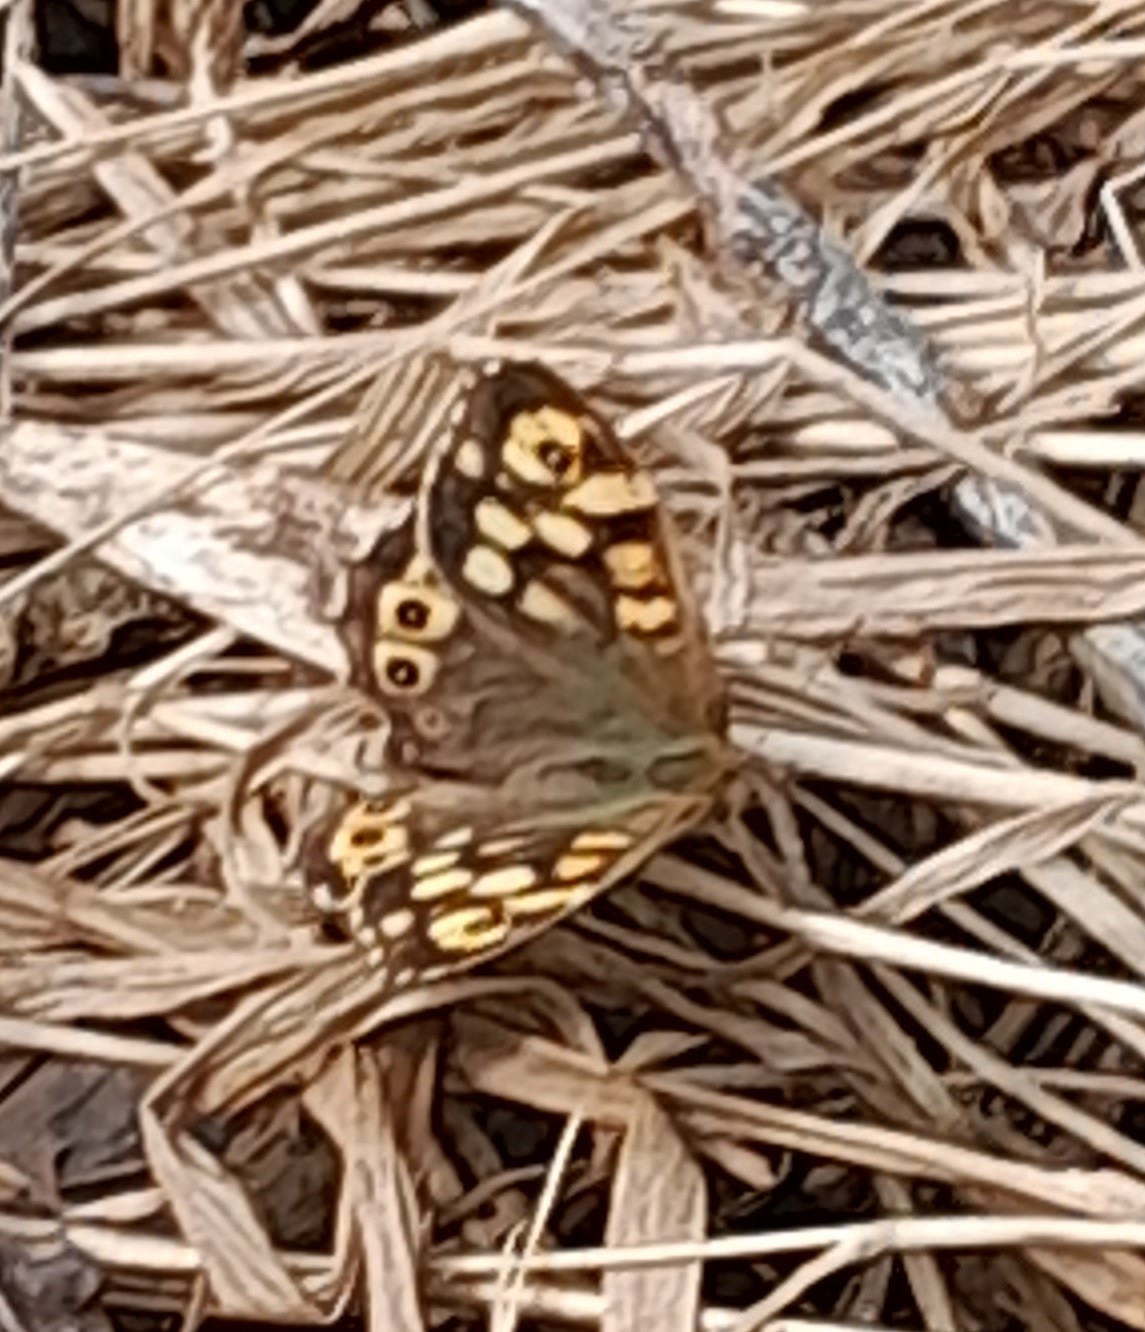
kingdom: Animalia
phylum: Arthropoda
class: Insecta
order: Lepidoptera
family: Nymphalidae
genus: Pararge
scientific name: Pararge aegeria
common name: Speckled wood
